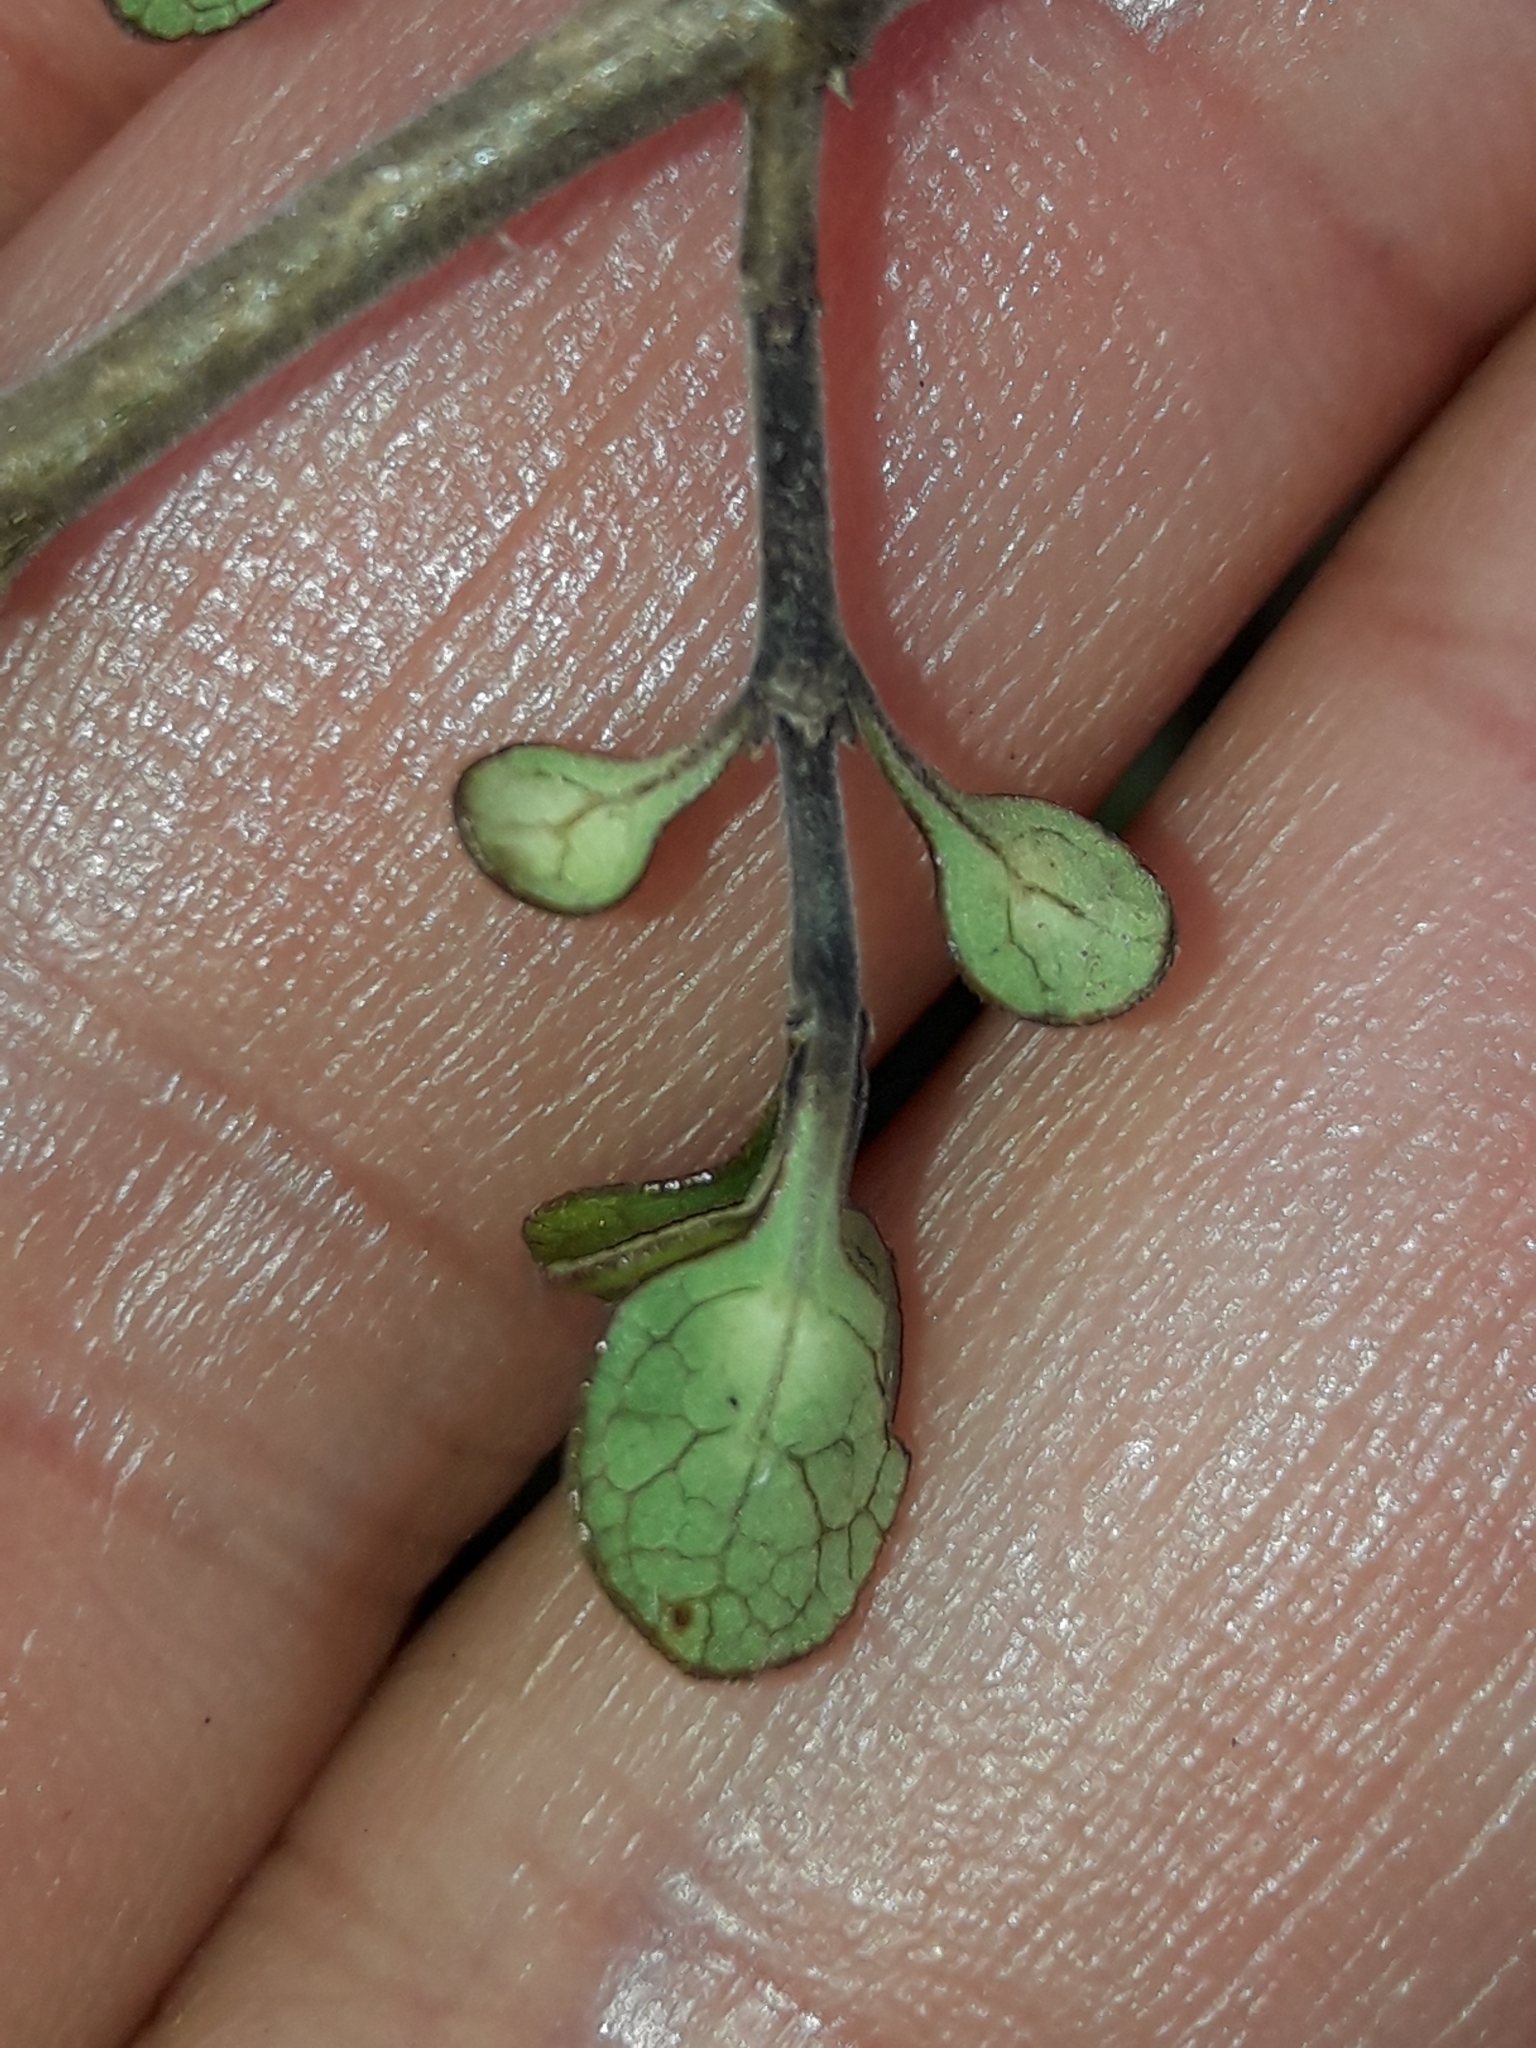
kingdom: Plantae
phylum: Tracheophyta
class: Magnoliopsida
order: Gentianales
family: Rubiaceae
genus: Coprosma
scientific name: Coprosma tenuicaulis
